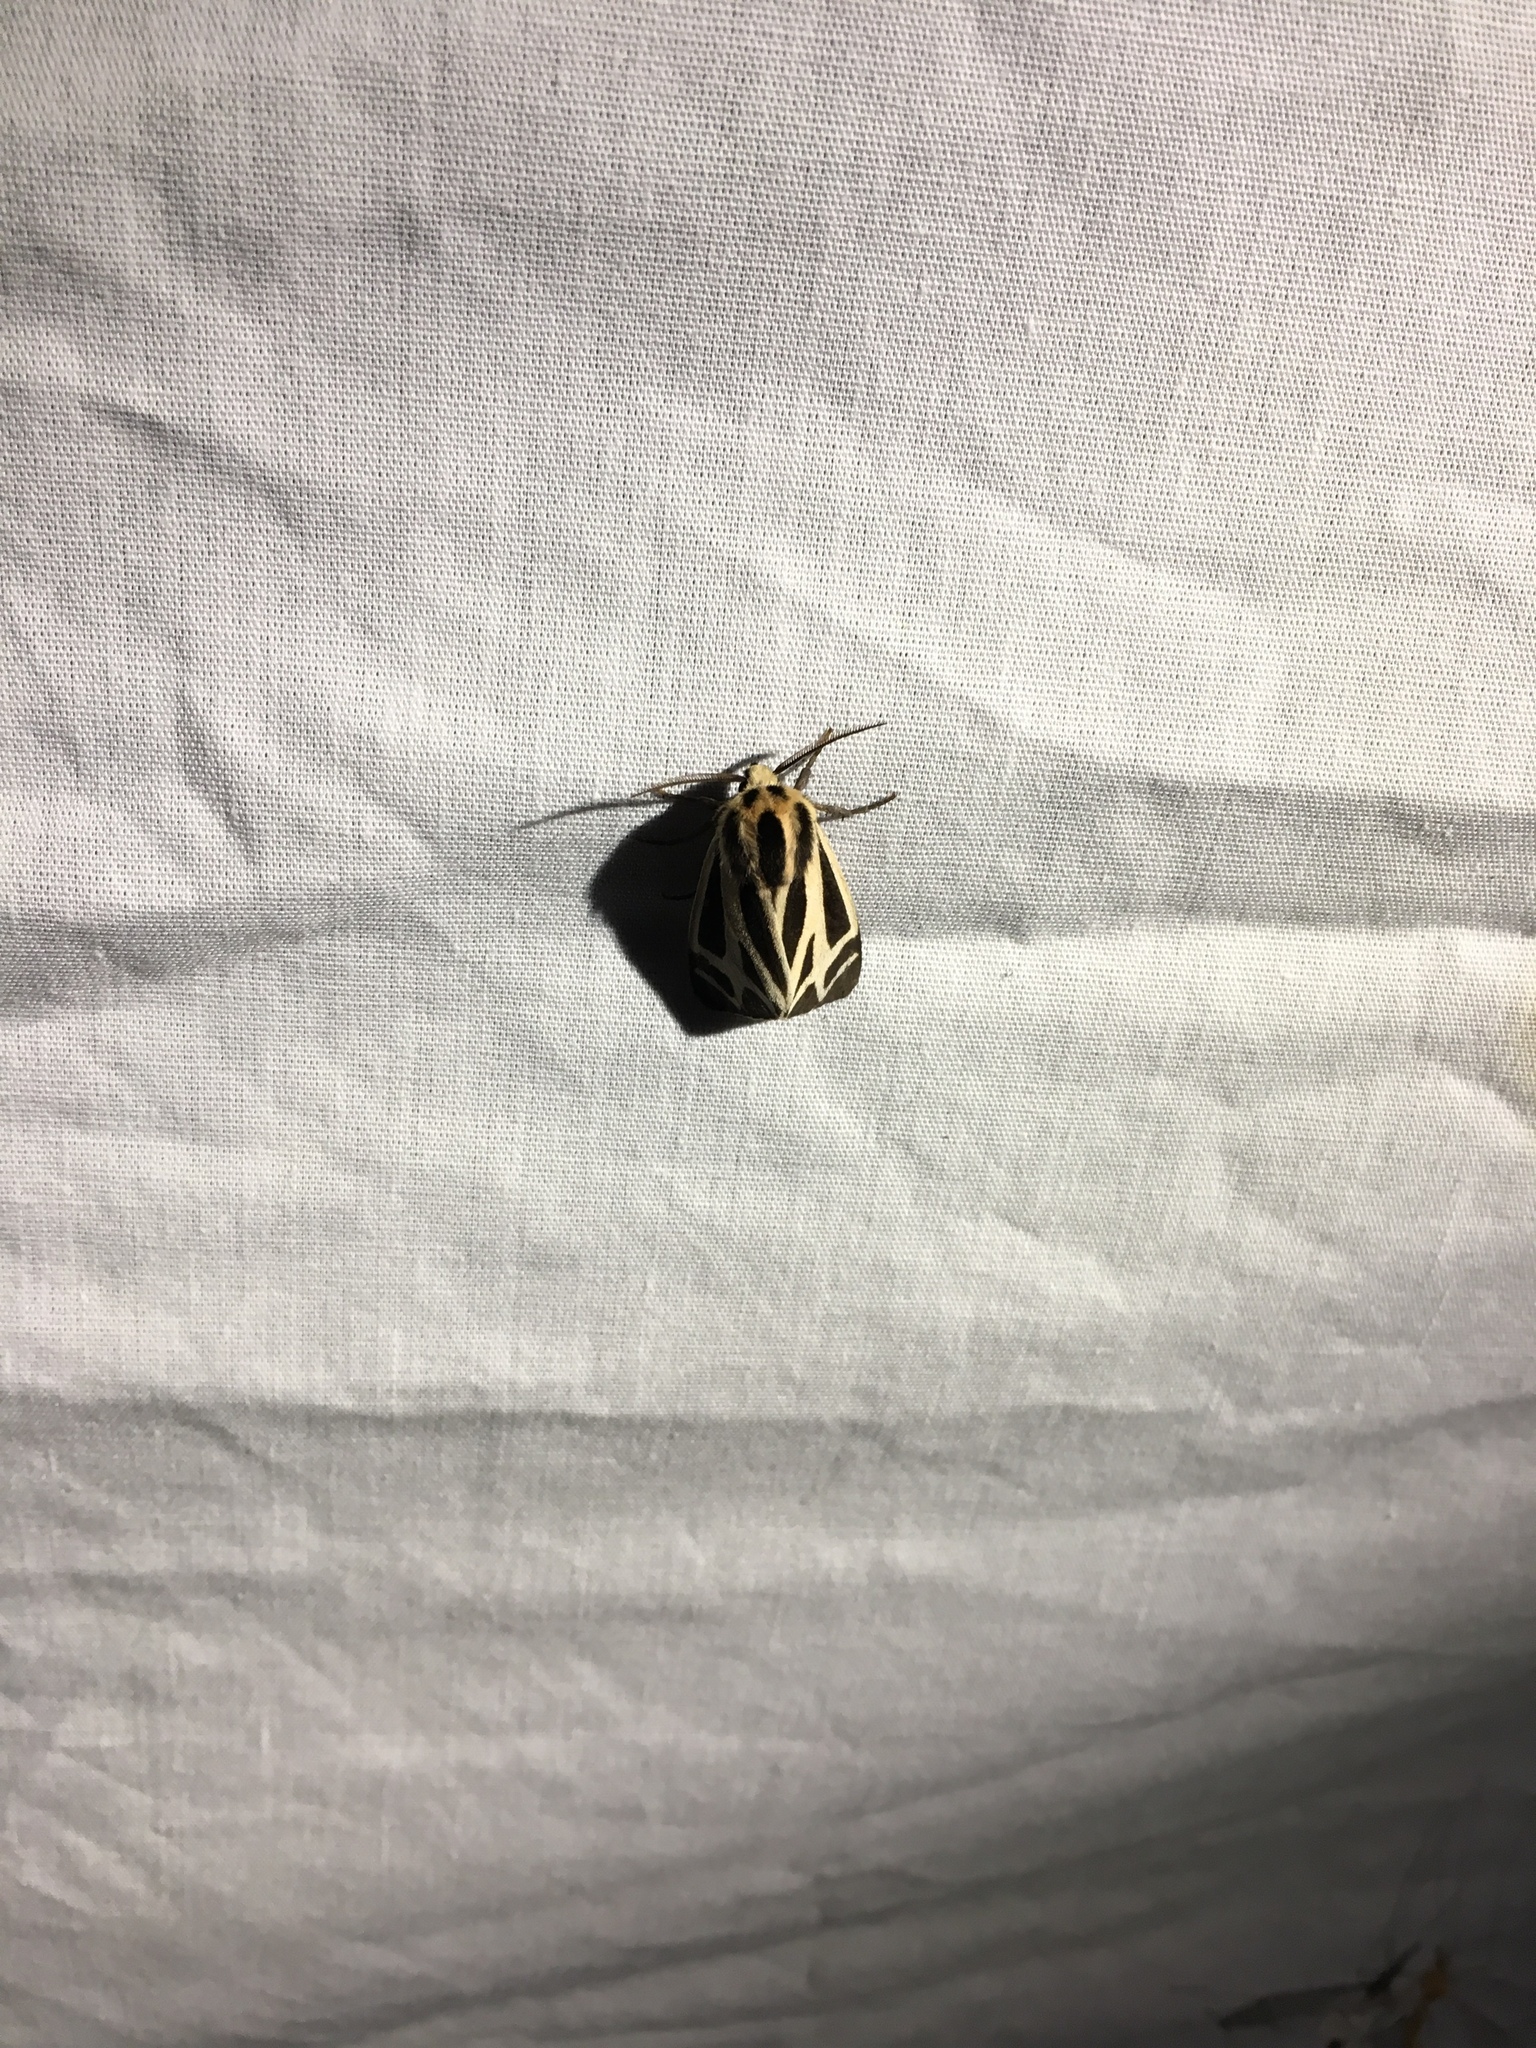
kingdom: Animalia
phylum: Arthropoda
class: Insecta
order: Lepidoptera
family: Erebidae
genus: Apantesis
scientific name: Apantesis
